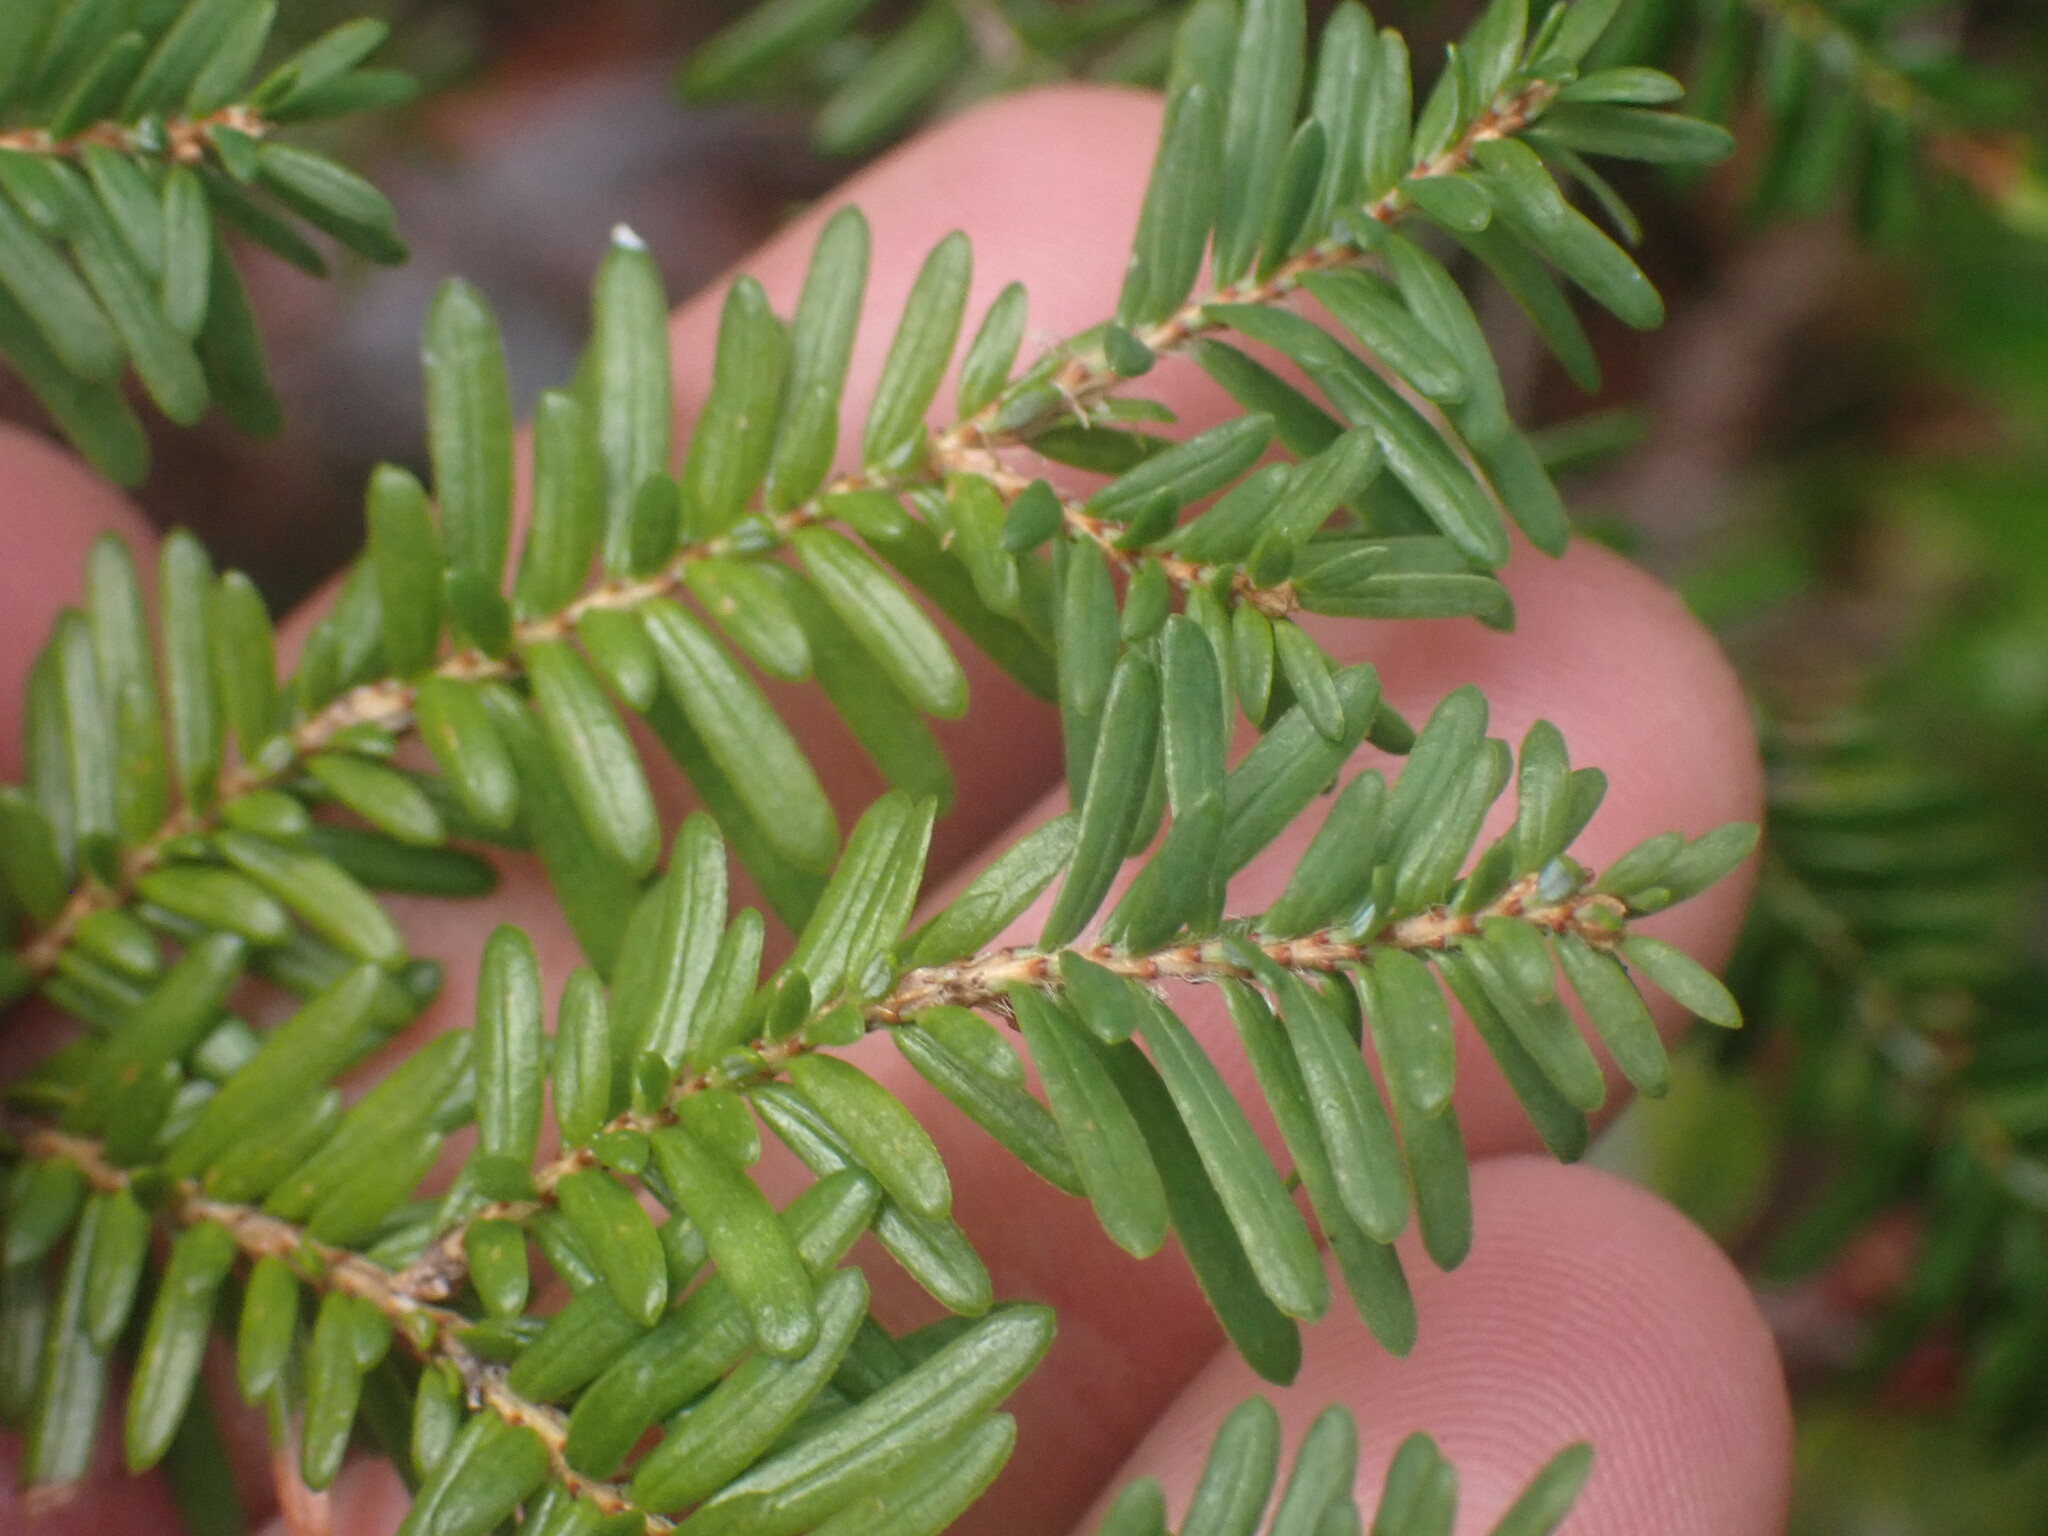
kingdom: Plantae
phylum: Tracheophyta
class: Pinopsida
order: Pinales
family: Pinaceae
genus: Tsuga
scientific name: Tsuga heterophylla
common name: Western hemlock
